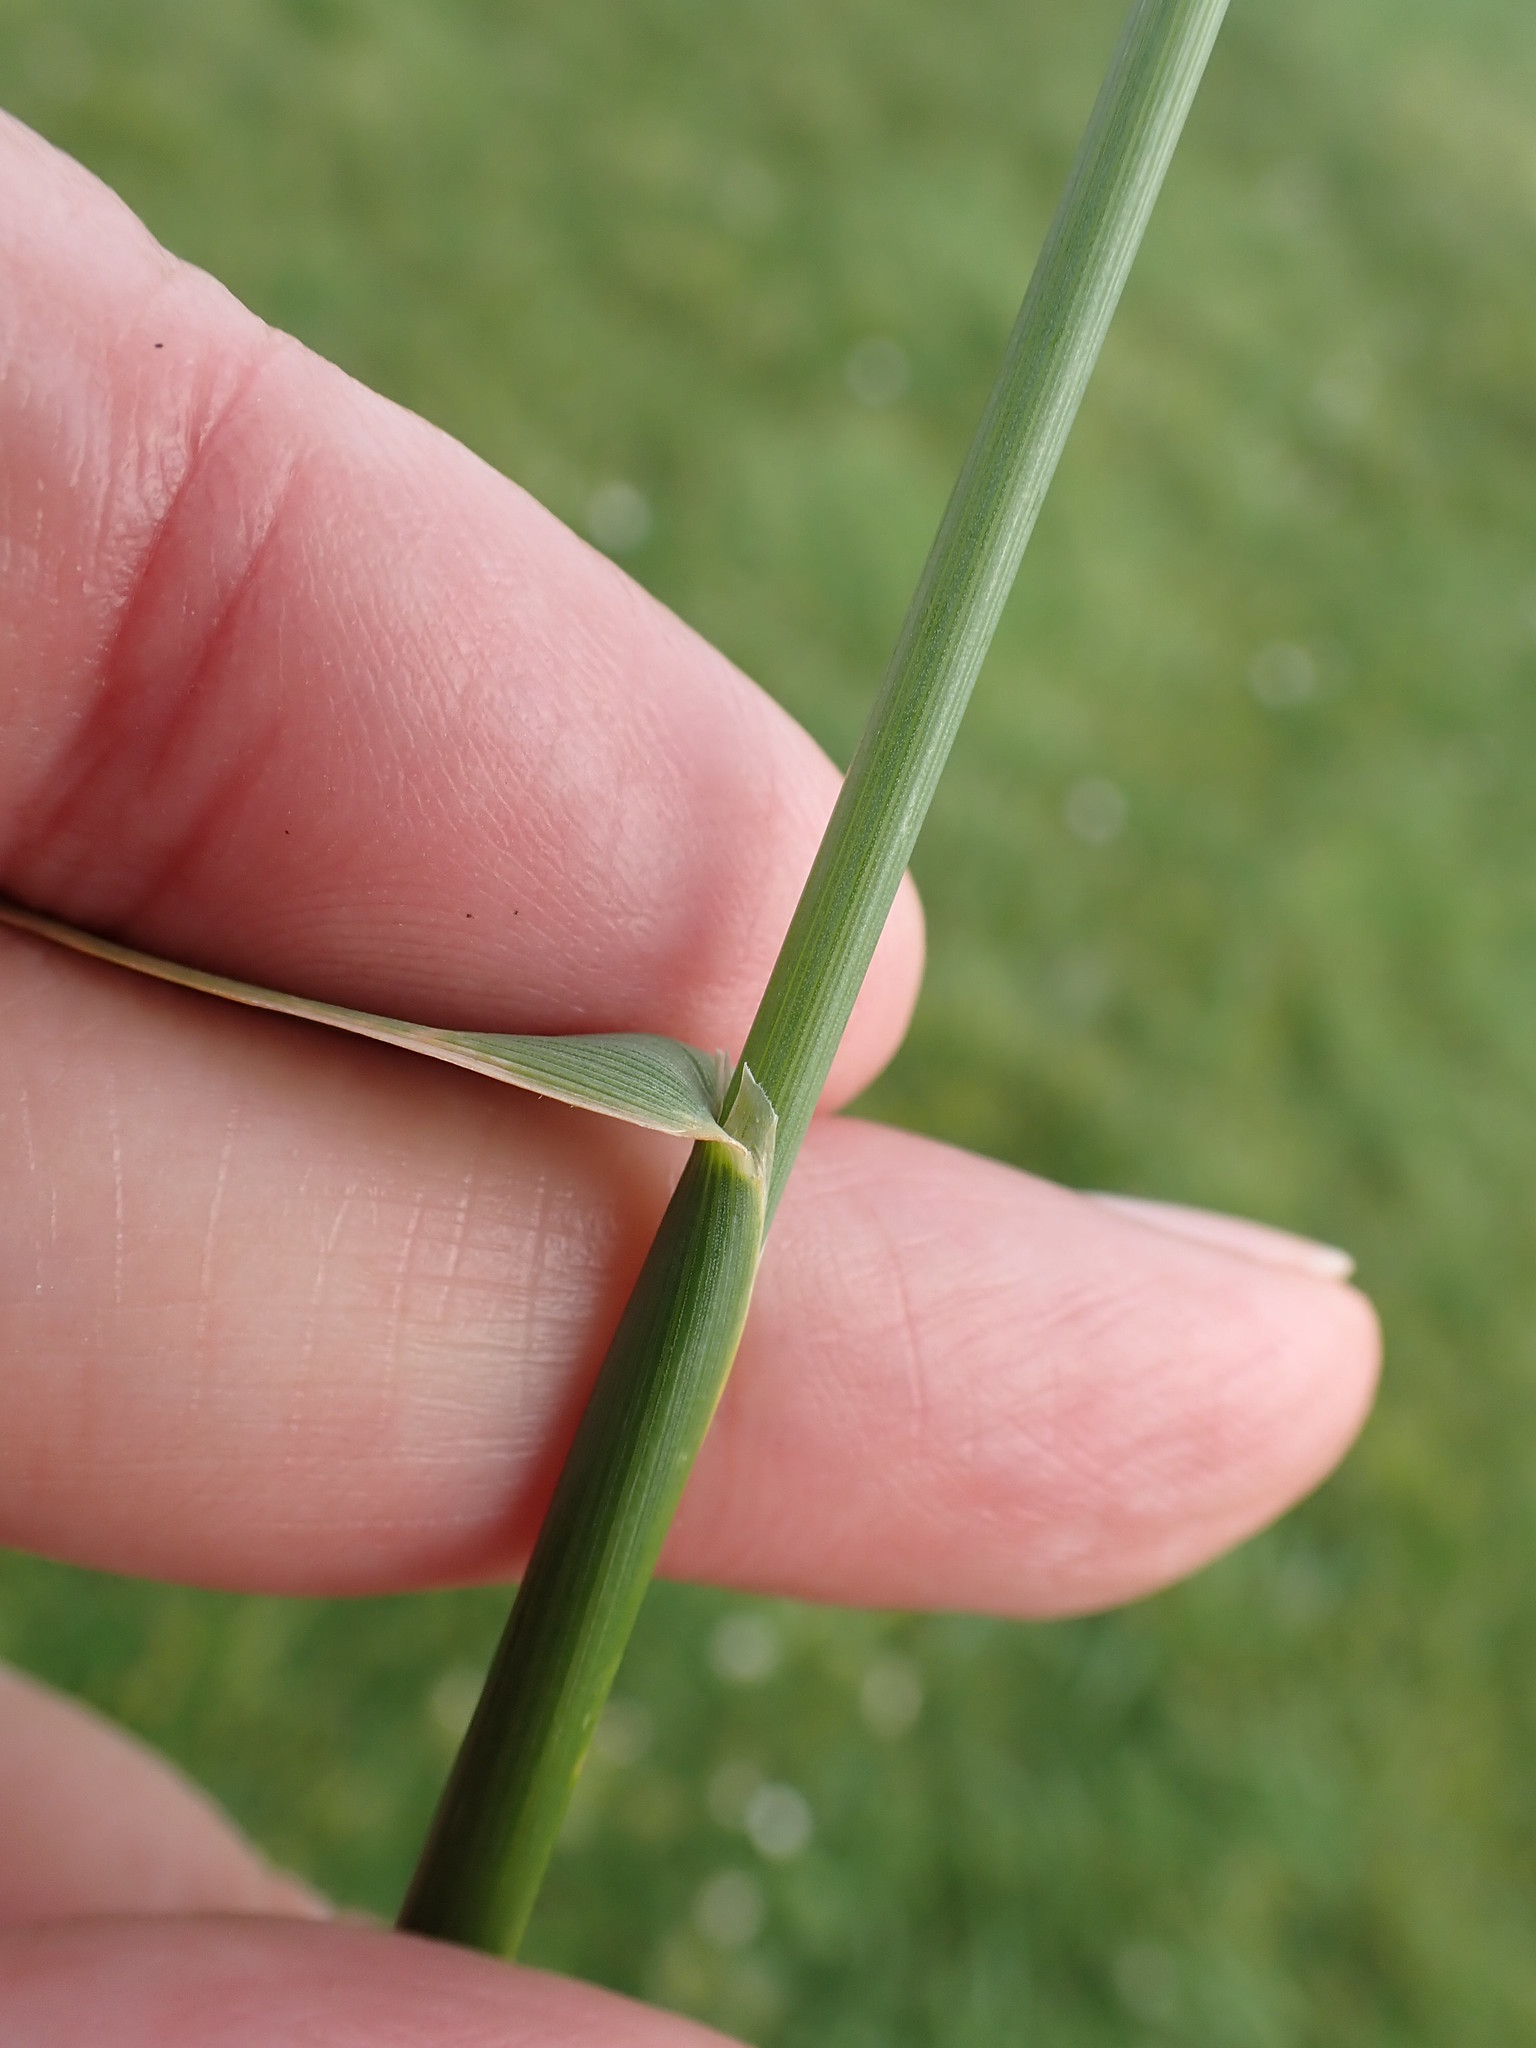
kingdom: Plantae
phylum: Tracheophyta
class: Liliopsida
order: Poales
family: Poaceae
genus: Alopecurus
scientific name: Alopecurus pratensis
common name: Meadow foxtail
